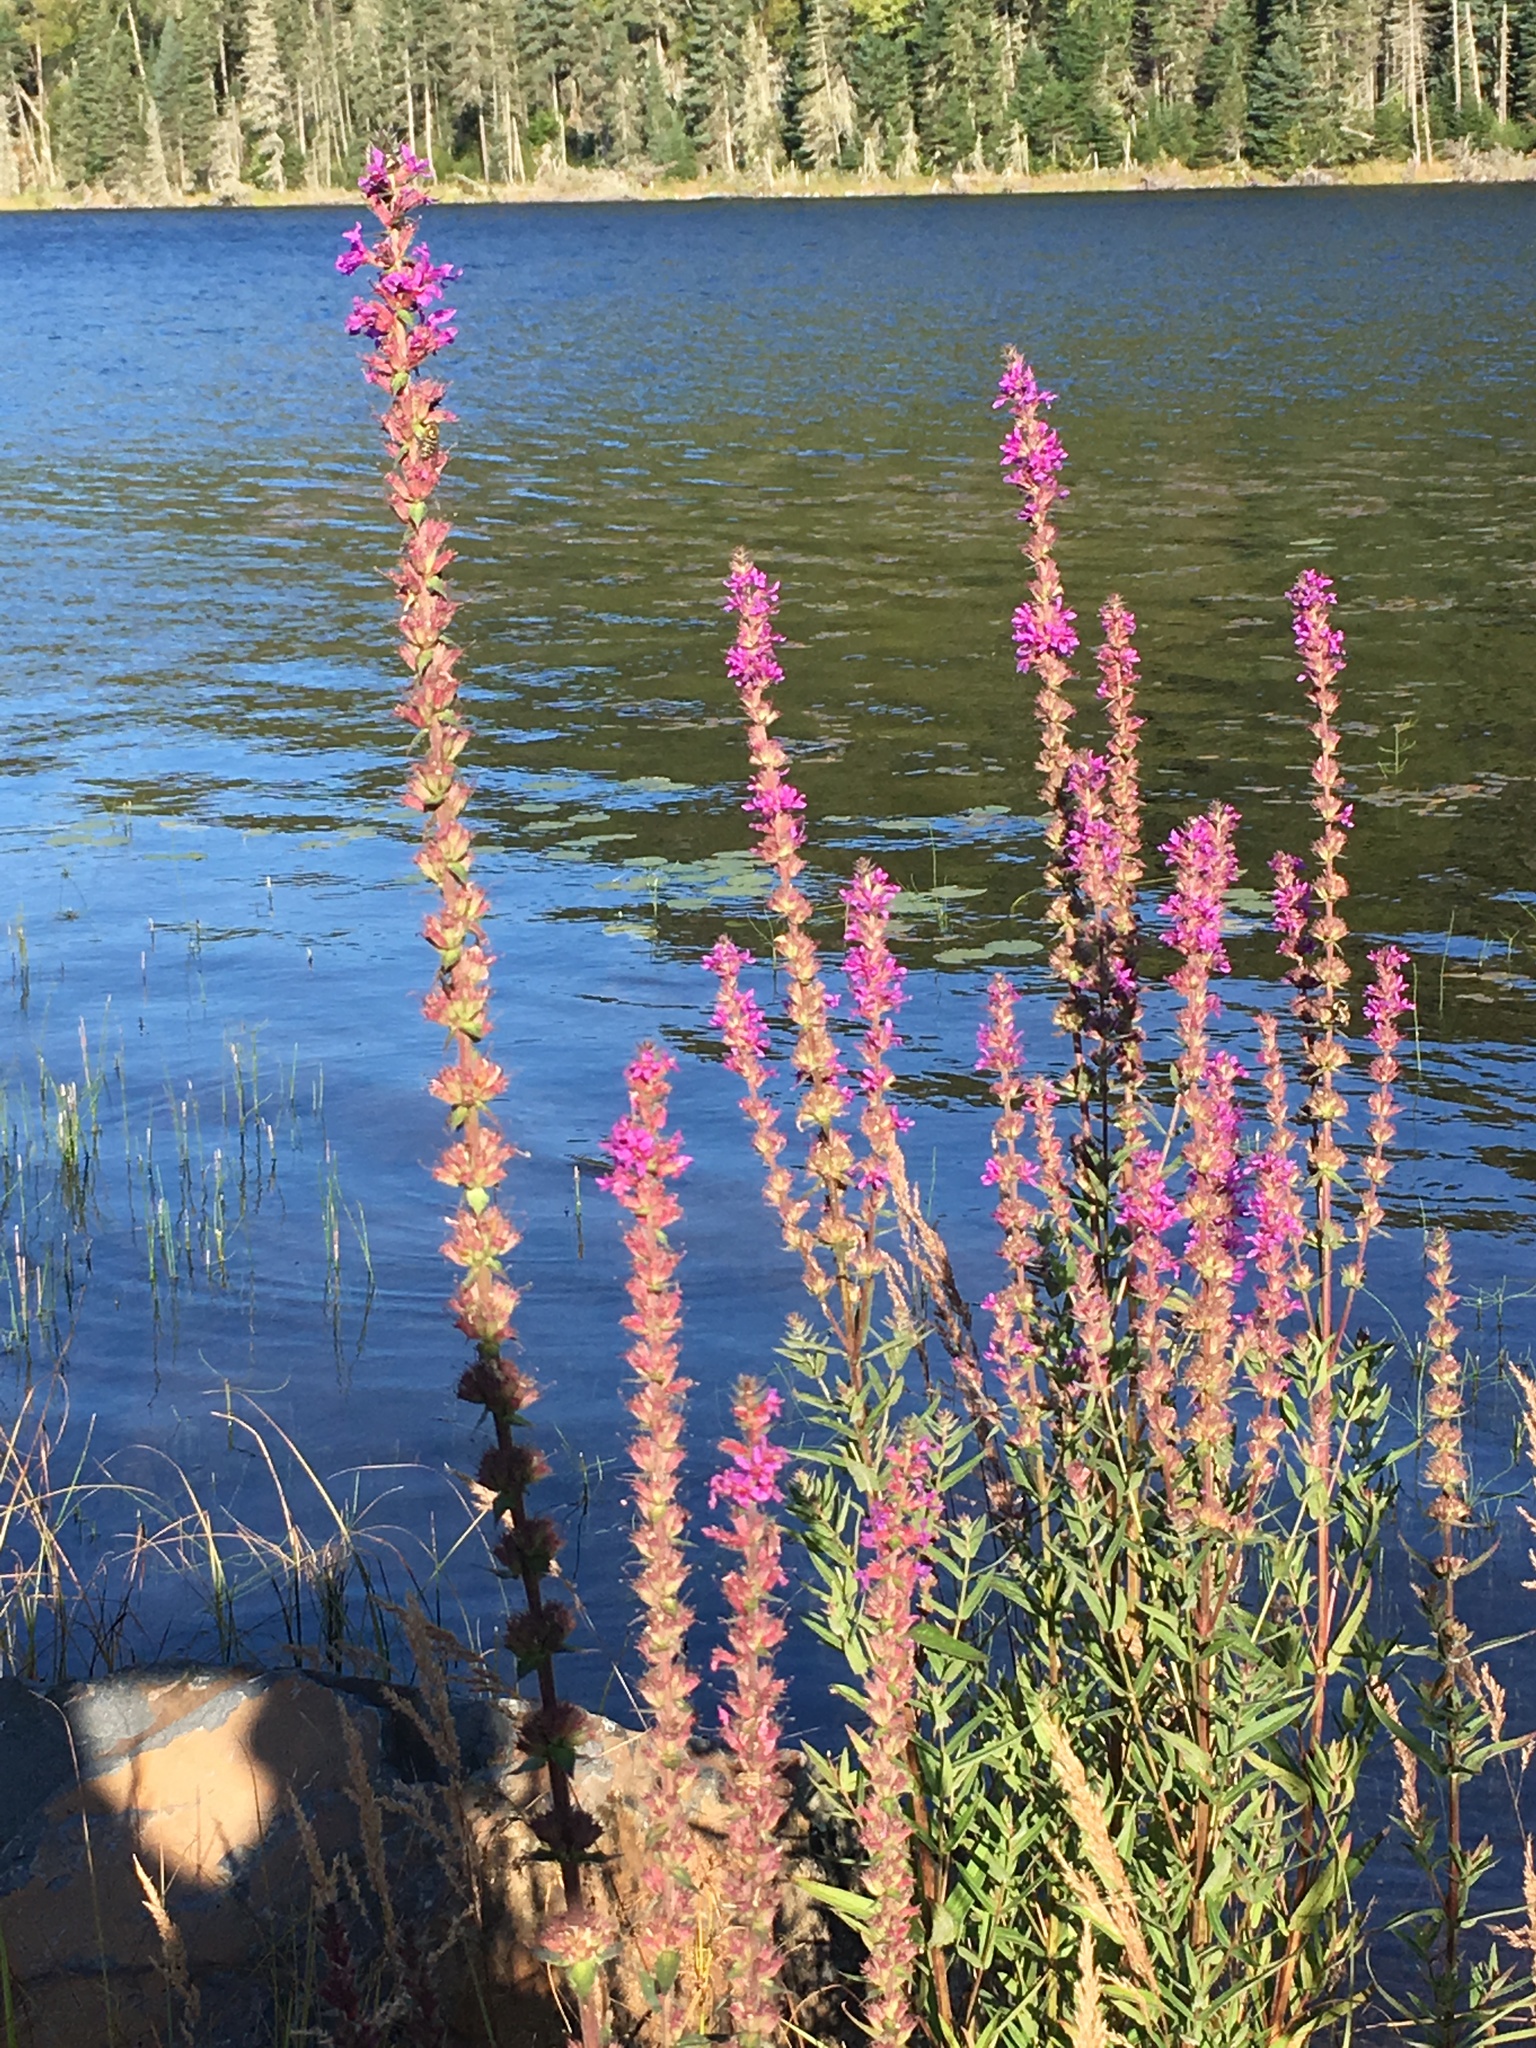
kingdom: Plantae
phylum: Tracheophyta
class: Magnoliopsida
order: Myrtales
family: Lythraceae
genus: Lythrum
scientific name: Lythrum salicaria
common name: Purple loosestrife
